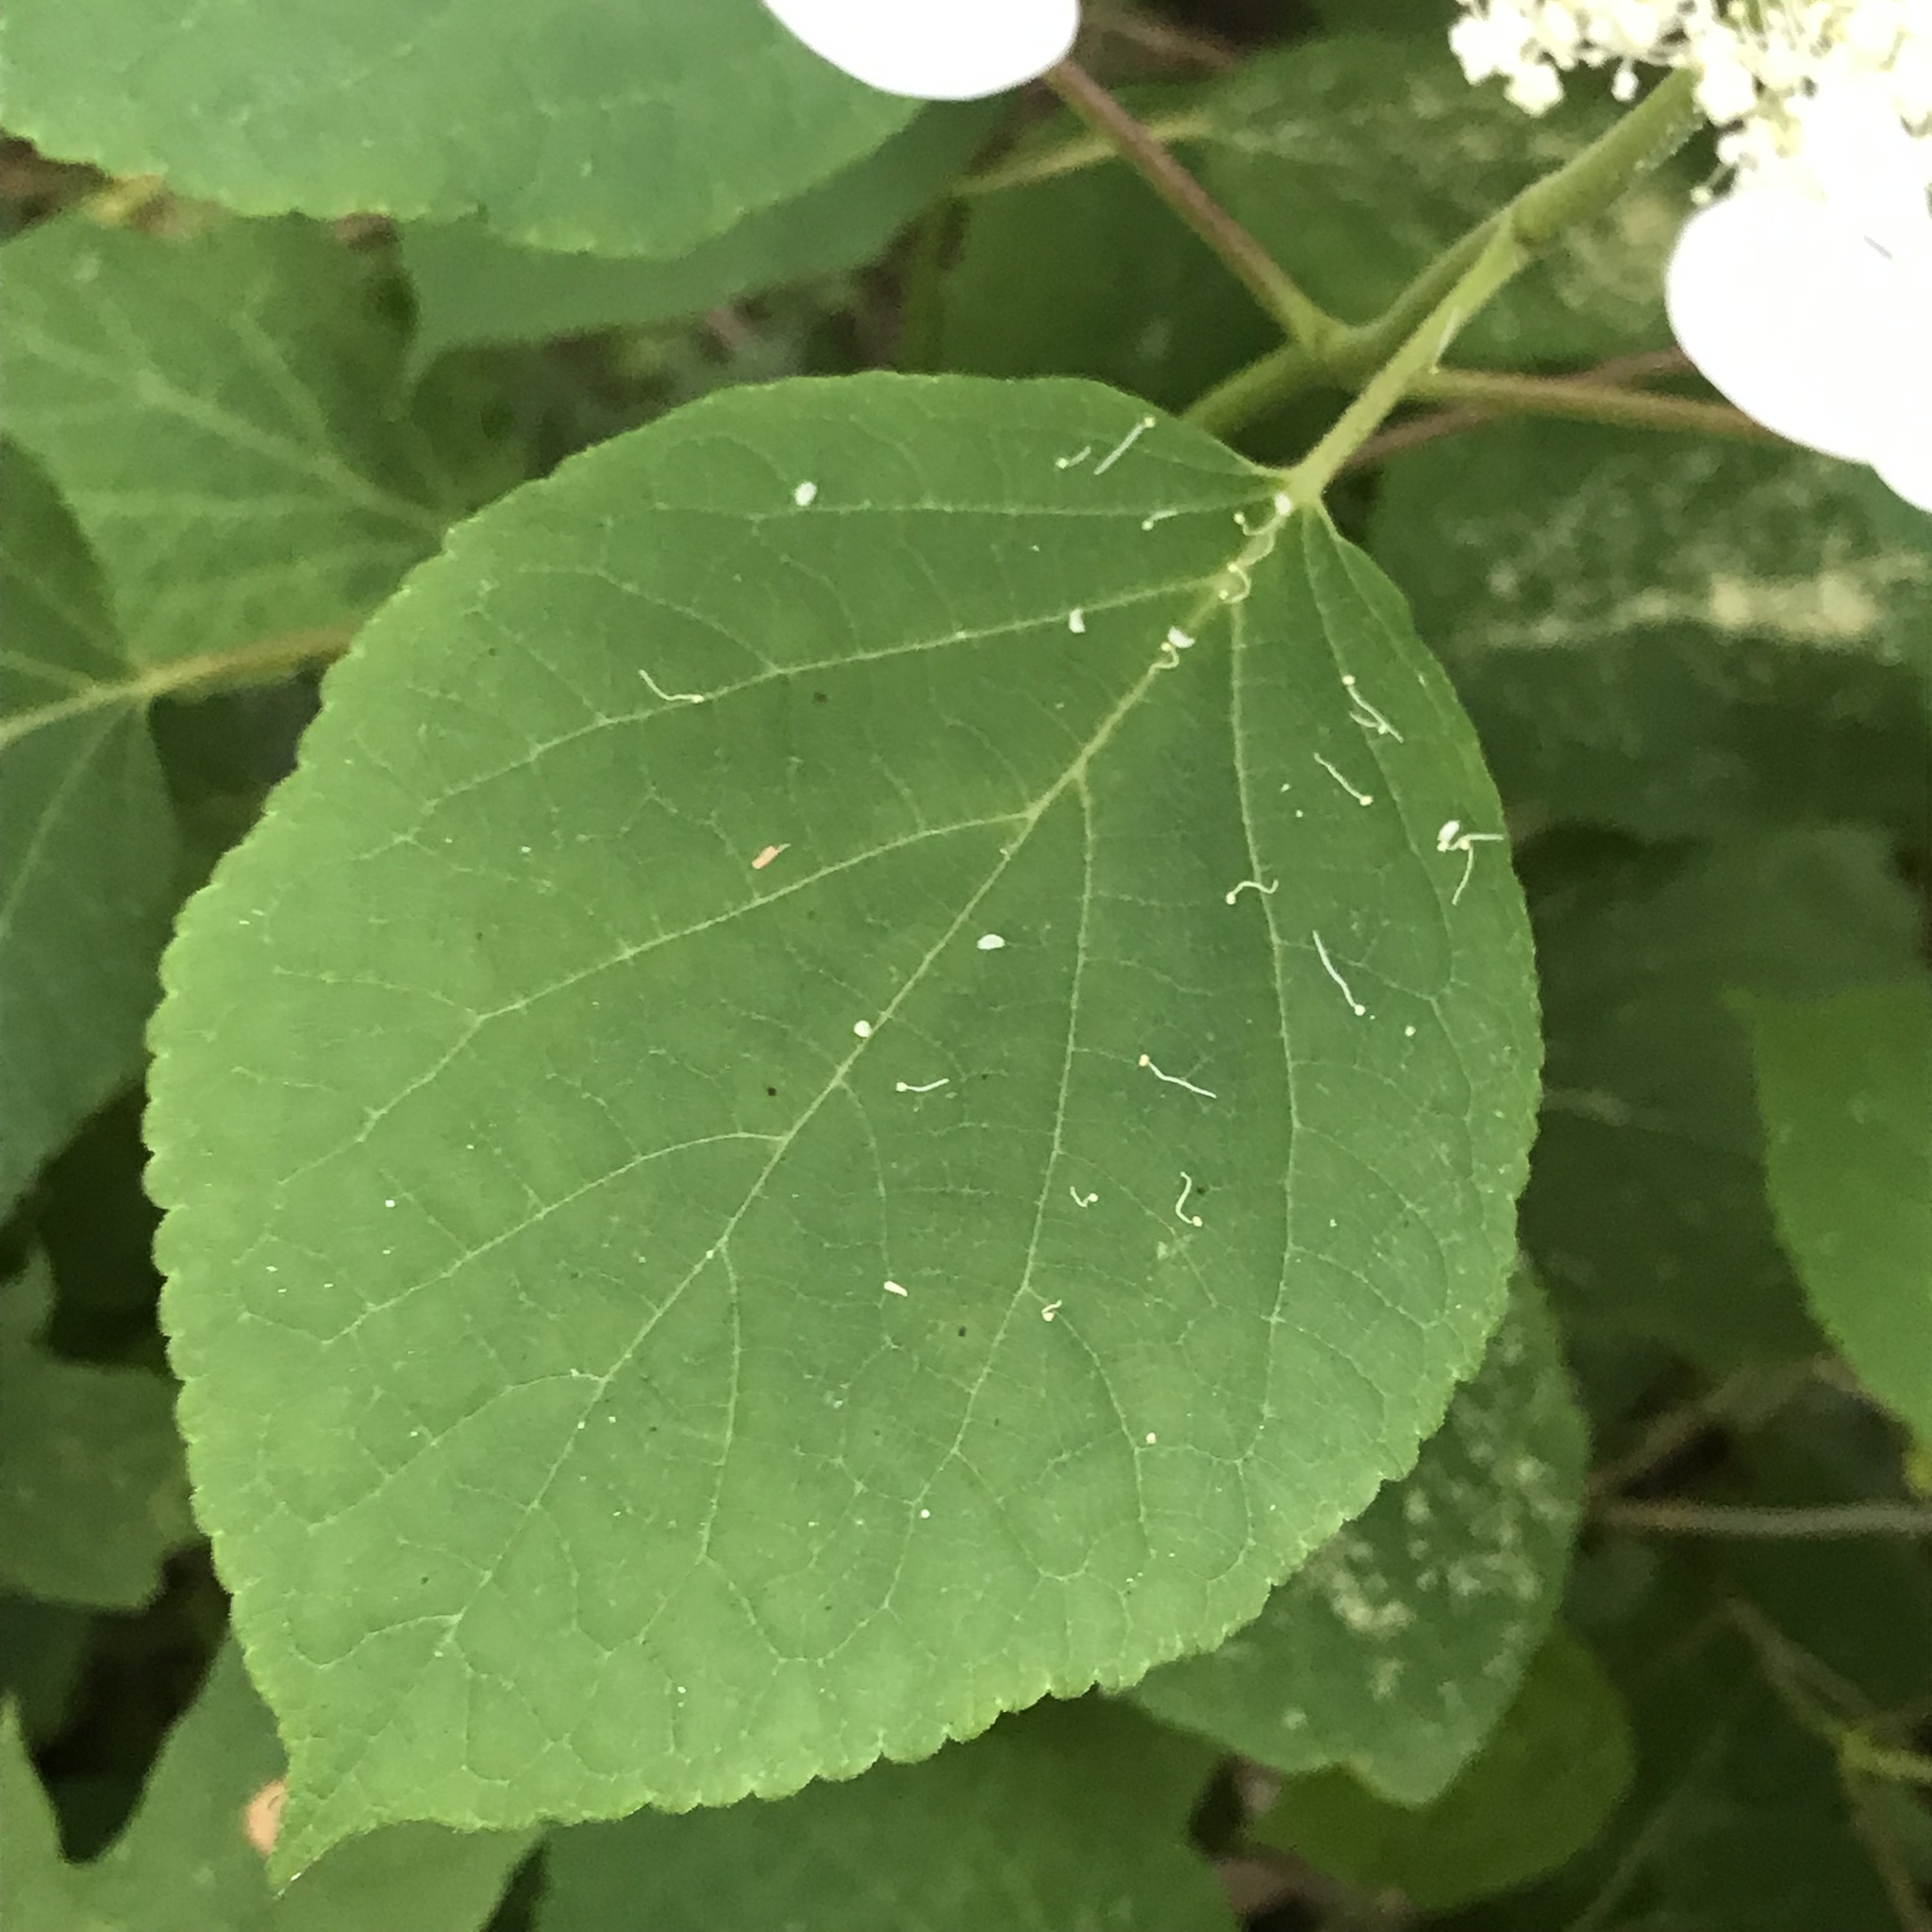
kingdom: Plantae
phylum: Tracheophyta
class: Magnoliopsida
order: Cornales
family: Hydrangeaceae
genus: Hydrangea
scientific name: Hydrangea arborescens
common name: Sevenbark
